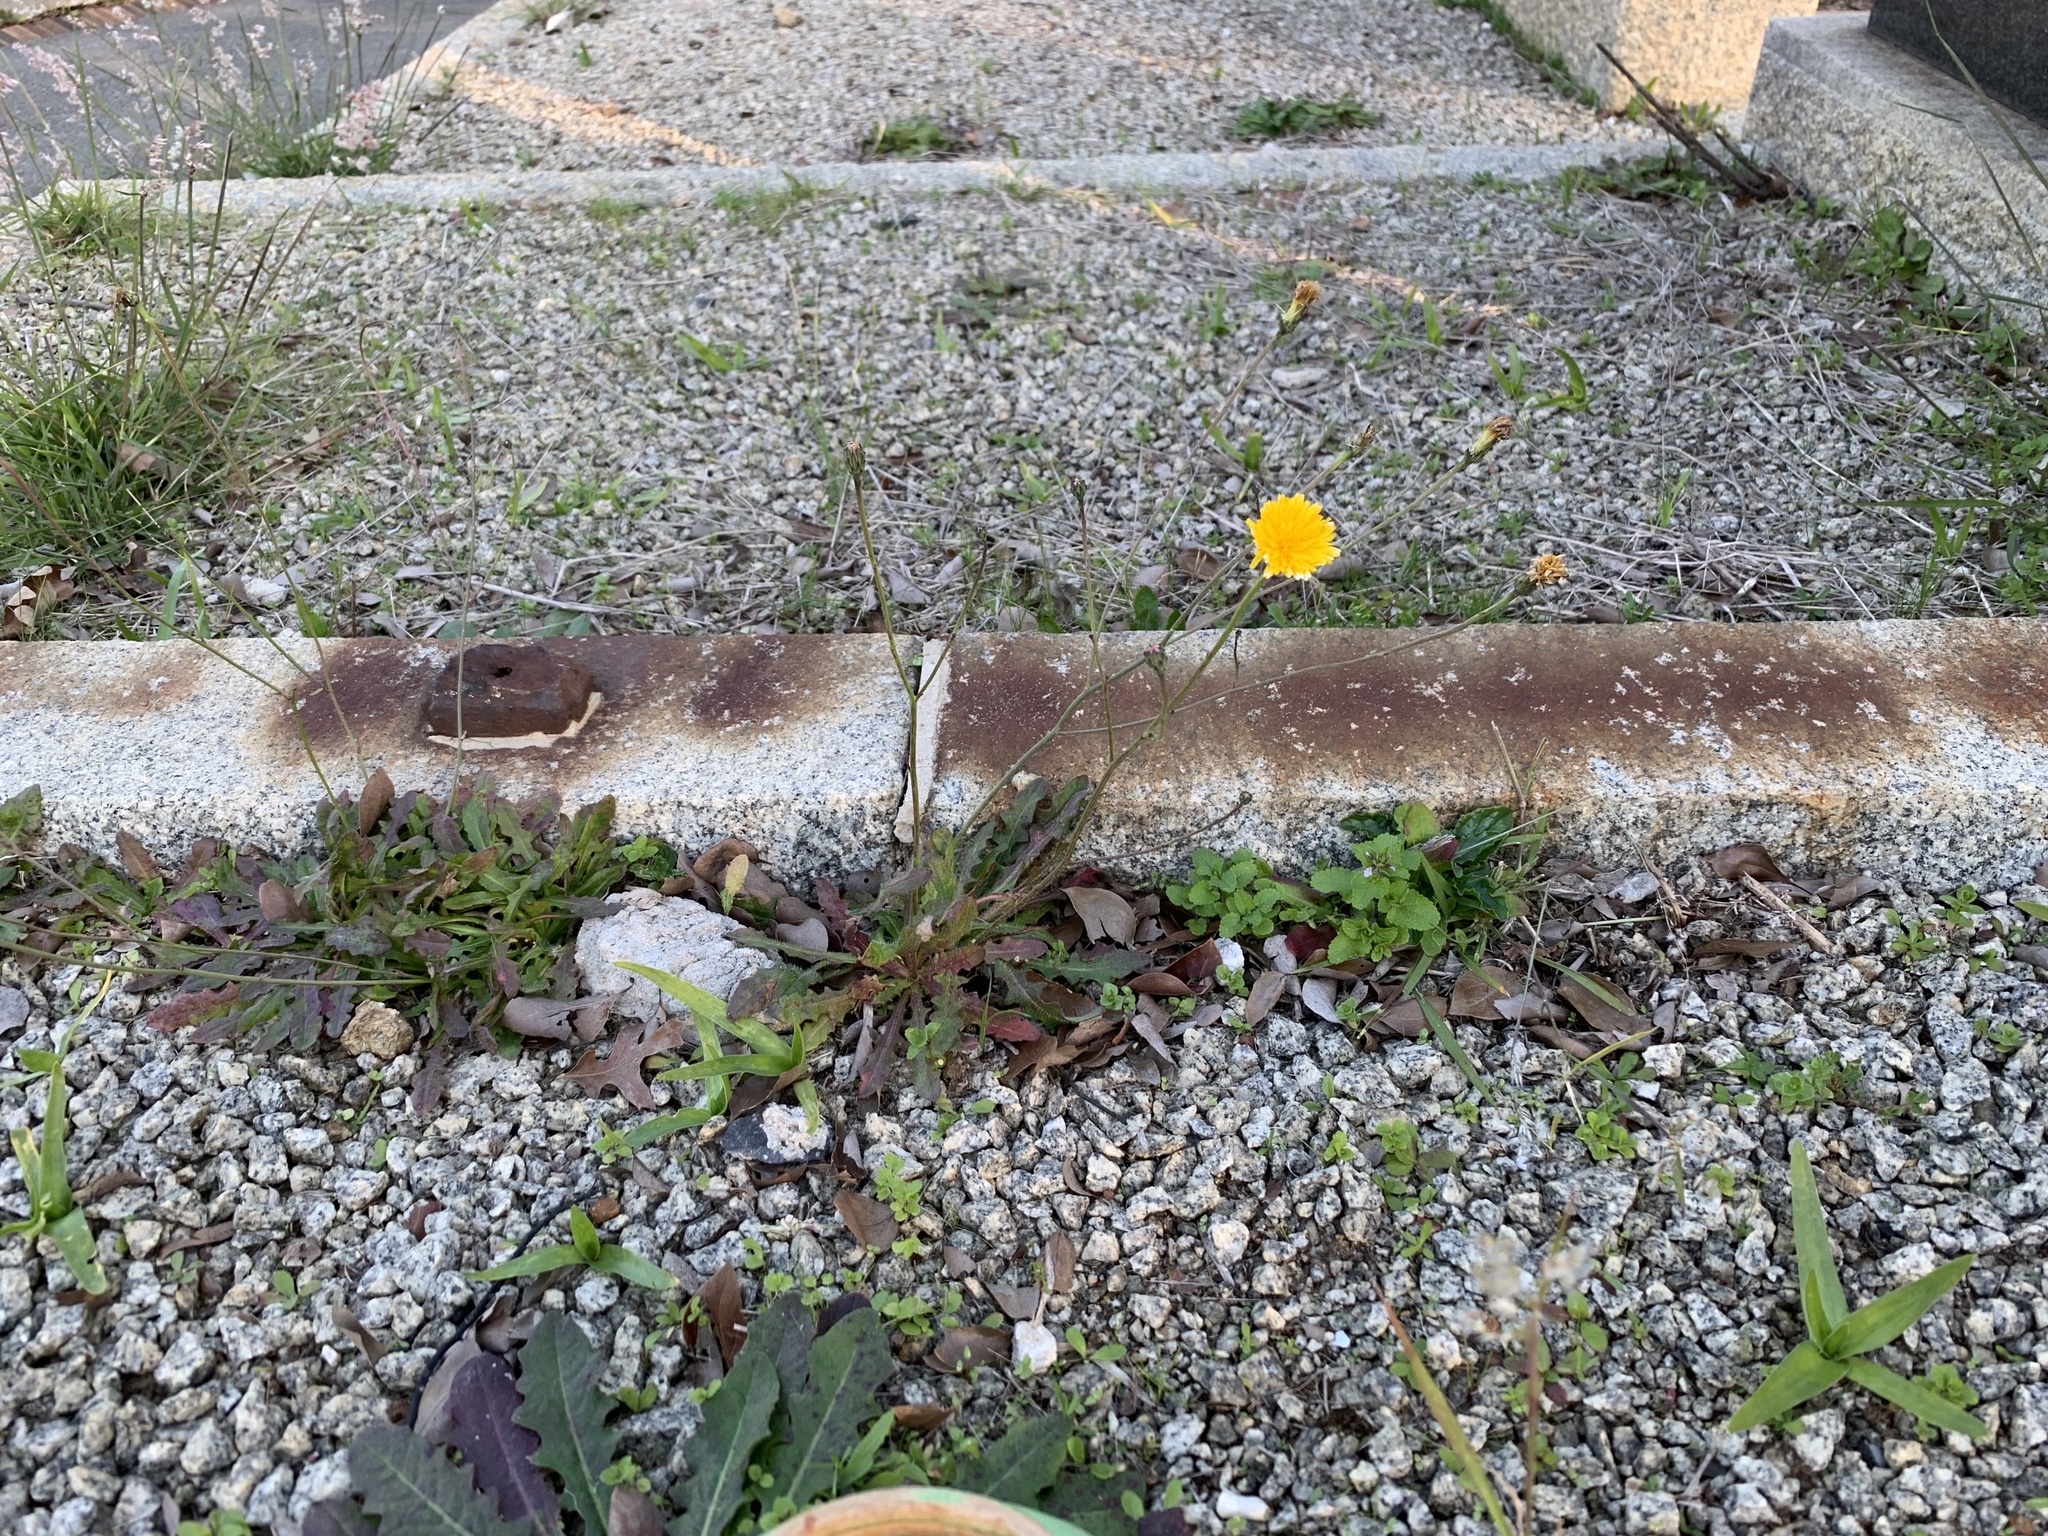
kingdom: Plantae
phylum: Tracheophyta
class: Magnoliopsida
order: Asterales
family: Asteraceae
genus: Hypochaeris
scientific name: Hypochaeris radicata
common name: Flatweed
